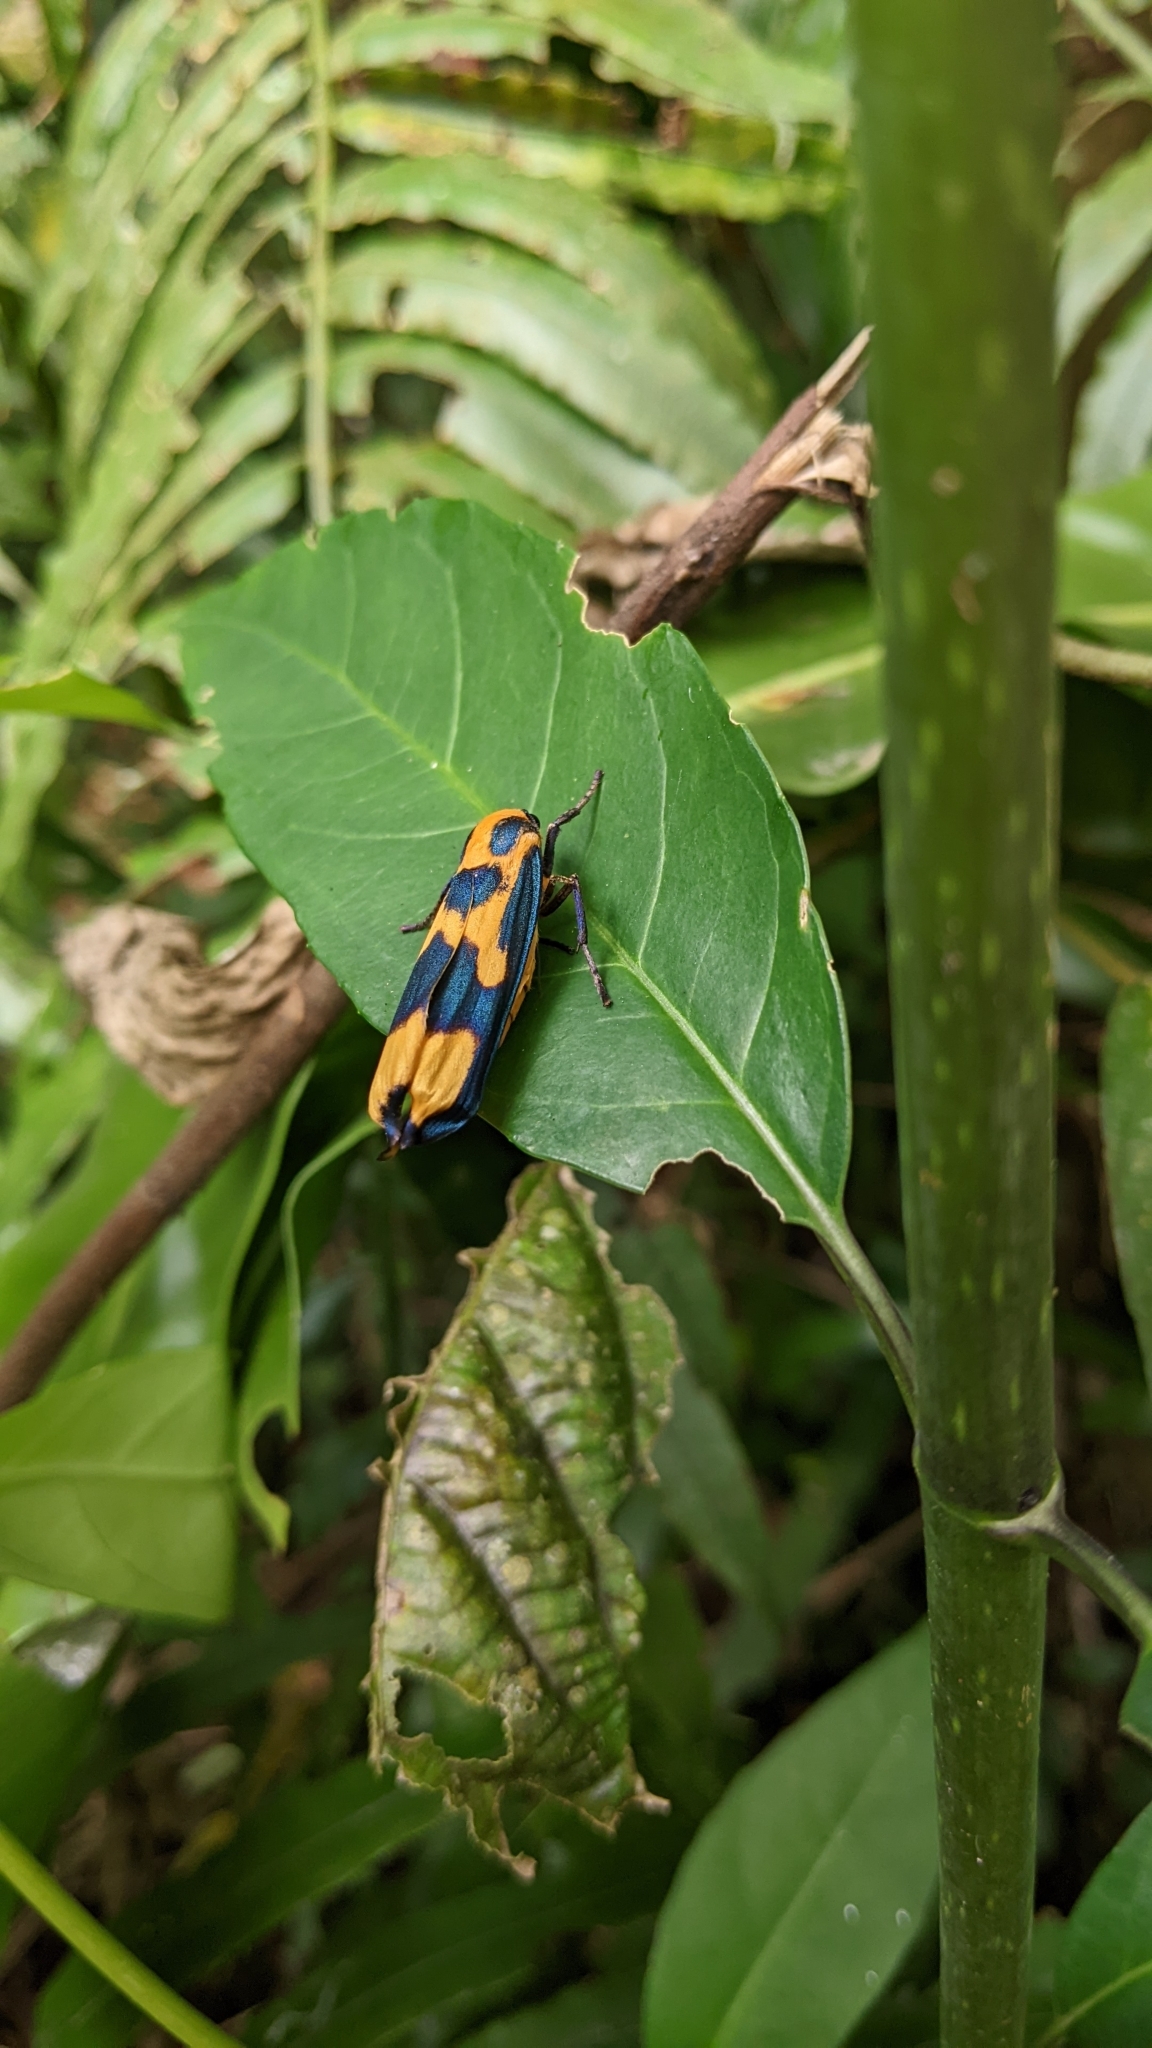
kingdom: Animalia
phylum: Arthropoda
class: Insecta
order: Lepidoptera
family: Erebidae
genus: Chrysaeglia
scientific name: Chrysaeglia magnifica
